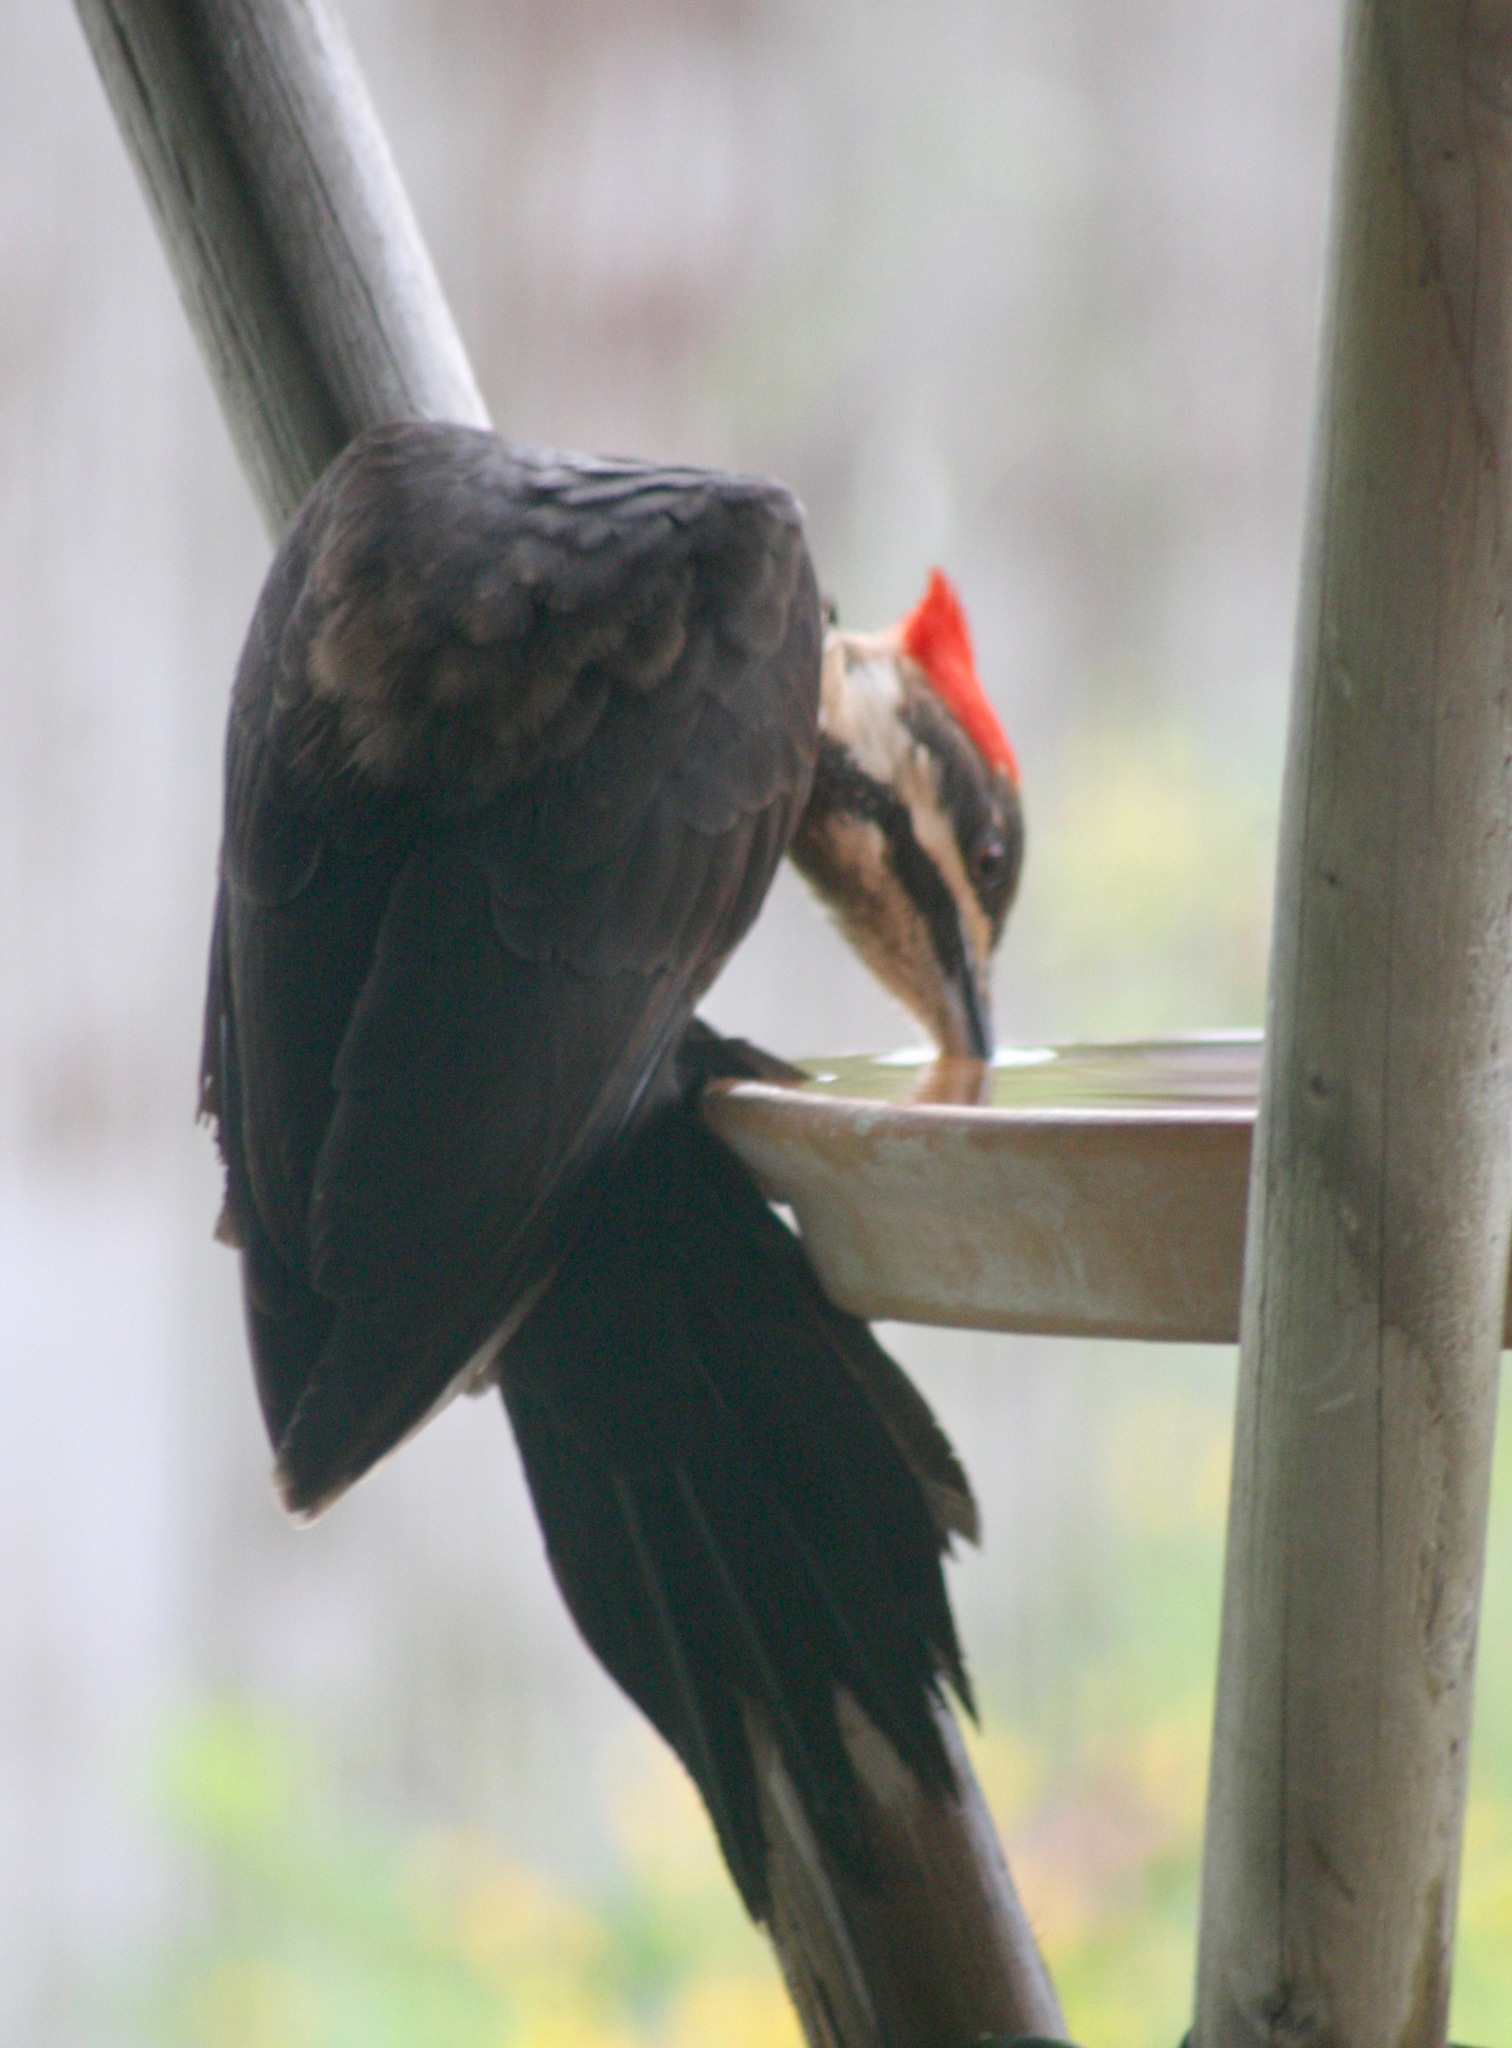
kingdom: Animalia
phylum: Chordata
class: Aves
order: Piciformes
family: Picidae
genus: Dryocopus
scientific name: Dryocopus pileatus
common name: Pileated woodpecker
